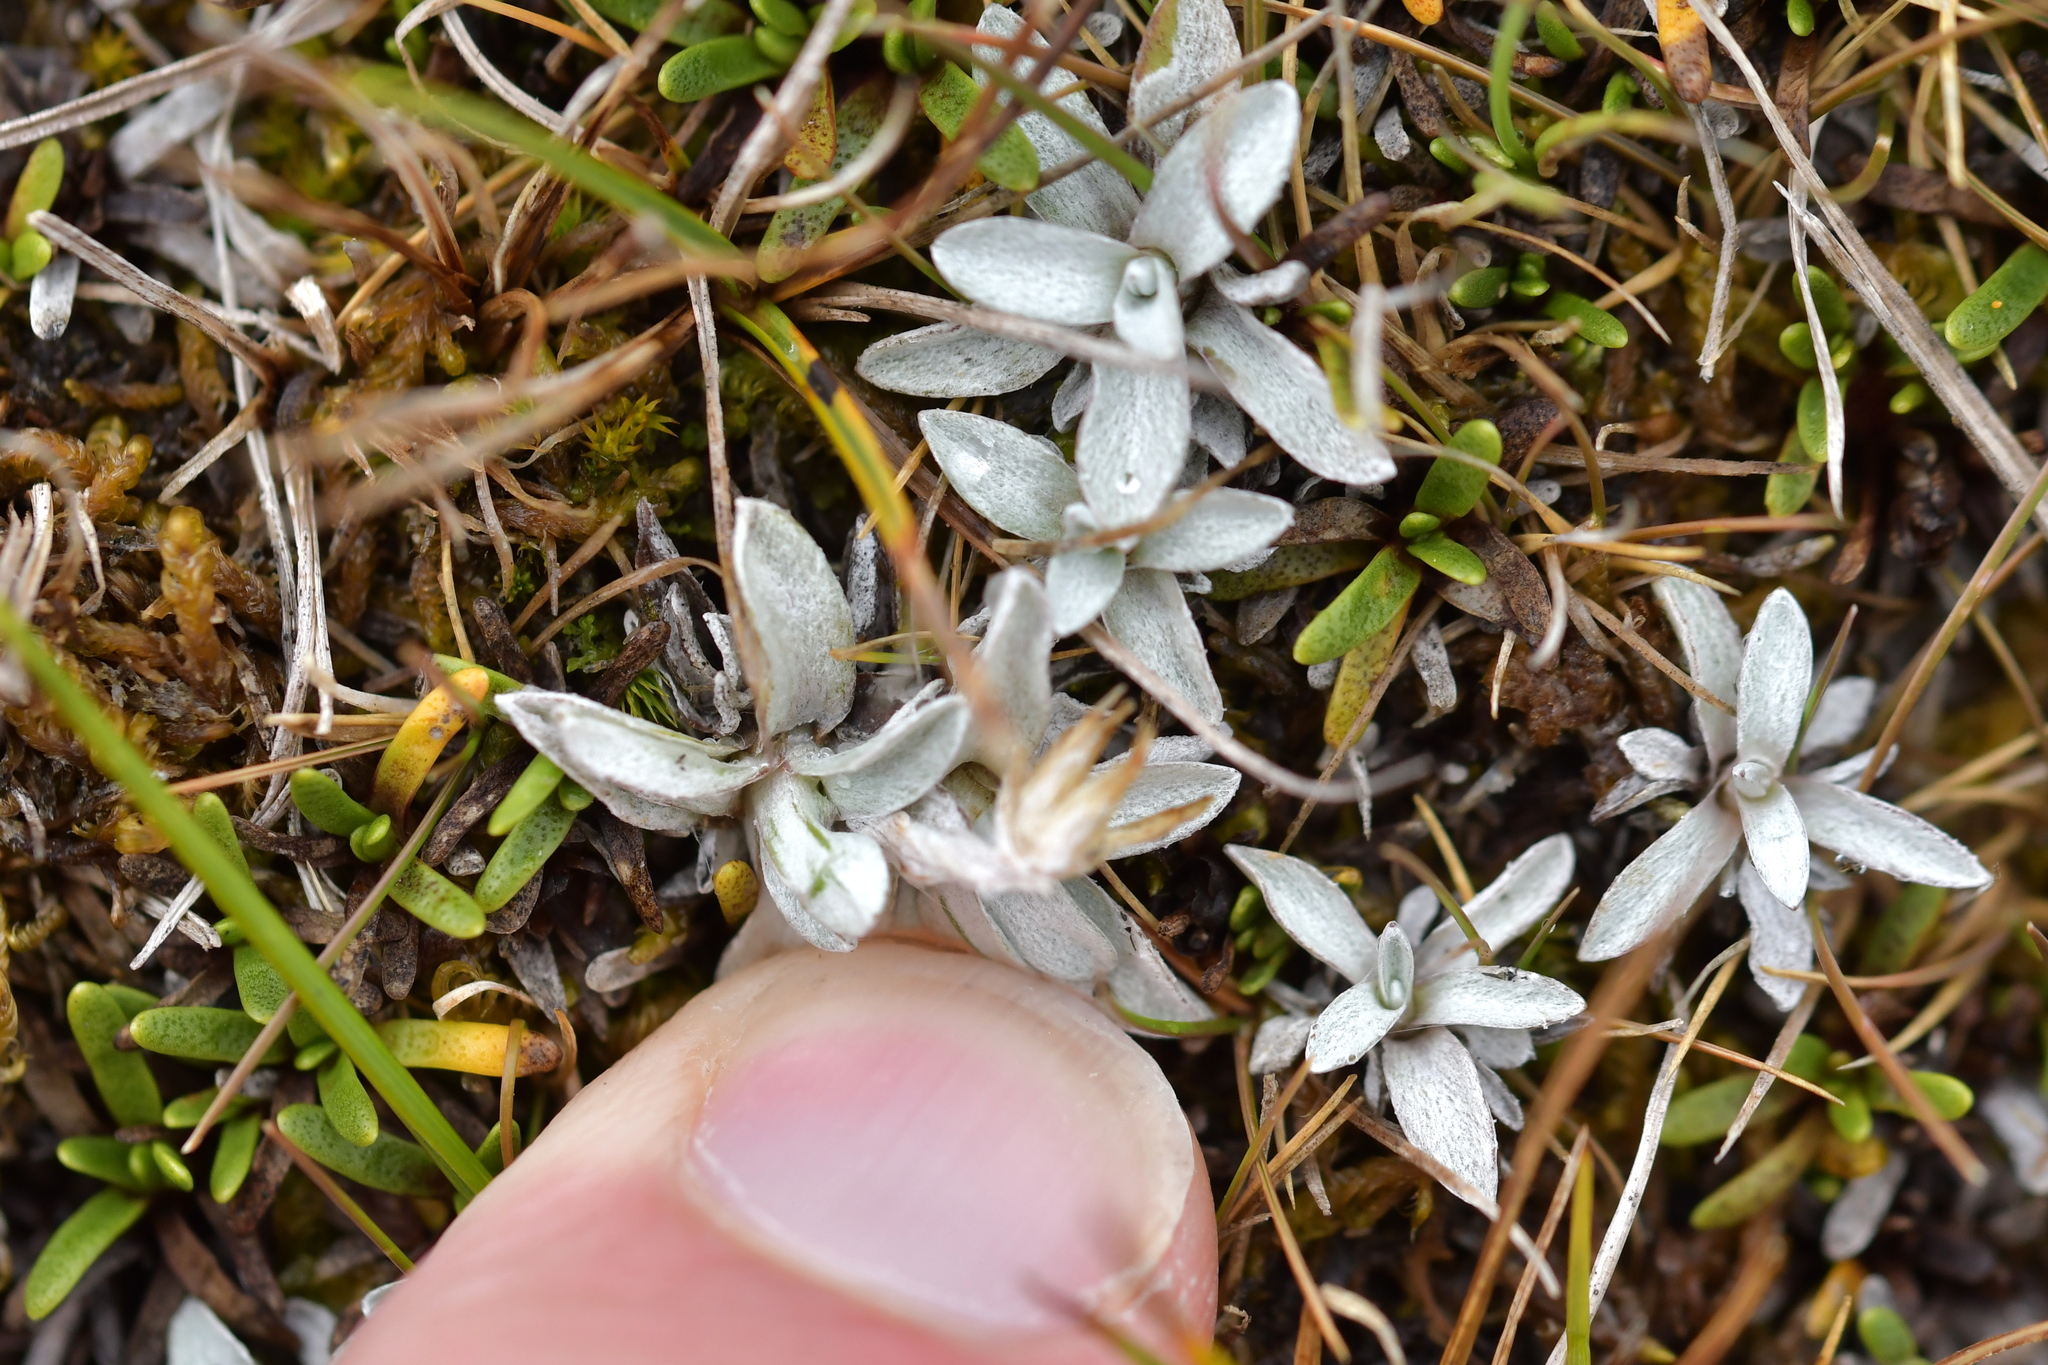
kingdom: Plantae
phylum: Tracheophyta
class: Magnoliopsida
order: Asterales
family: Asteraceae
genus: Euchiton
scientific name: Euchiton traversii
